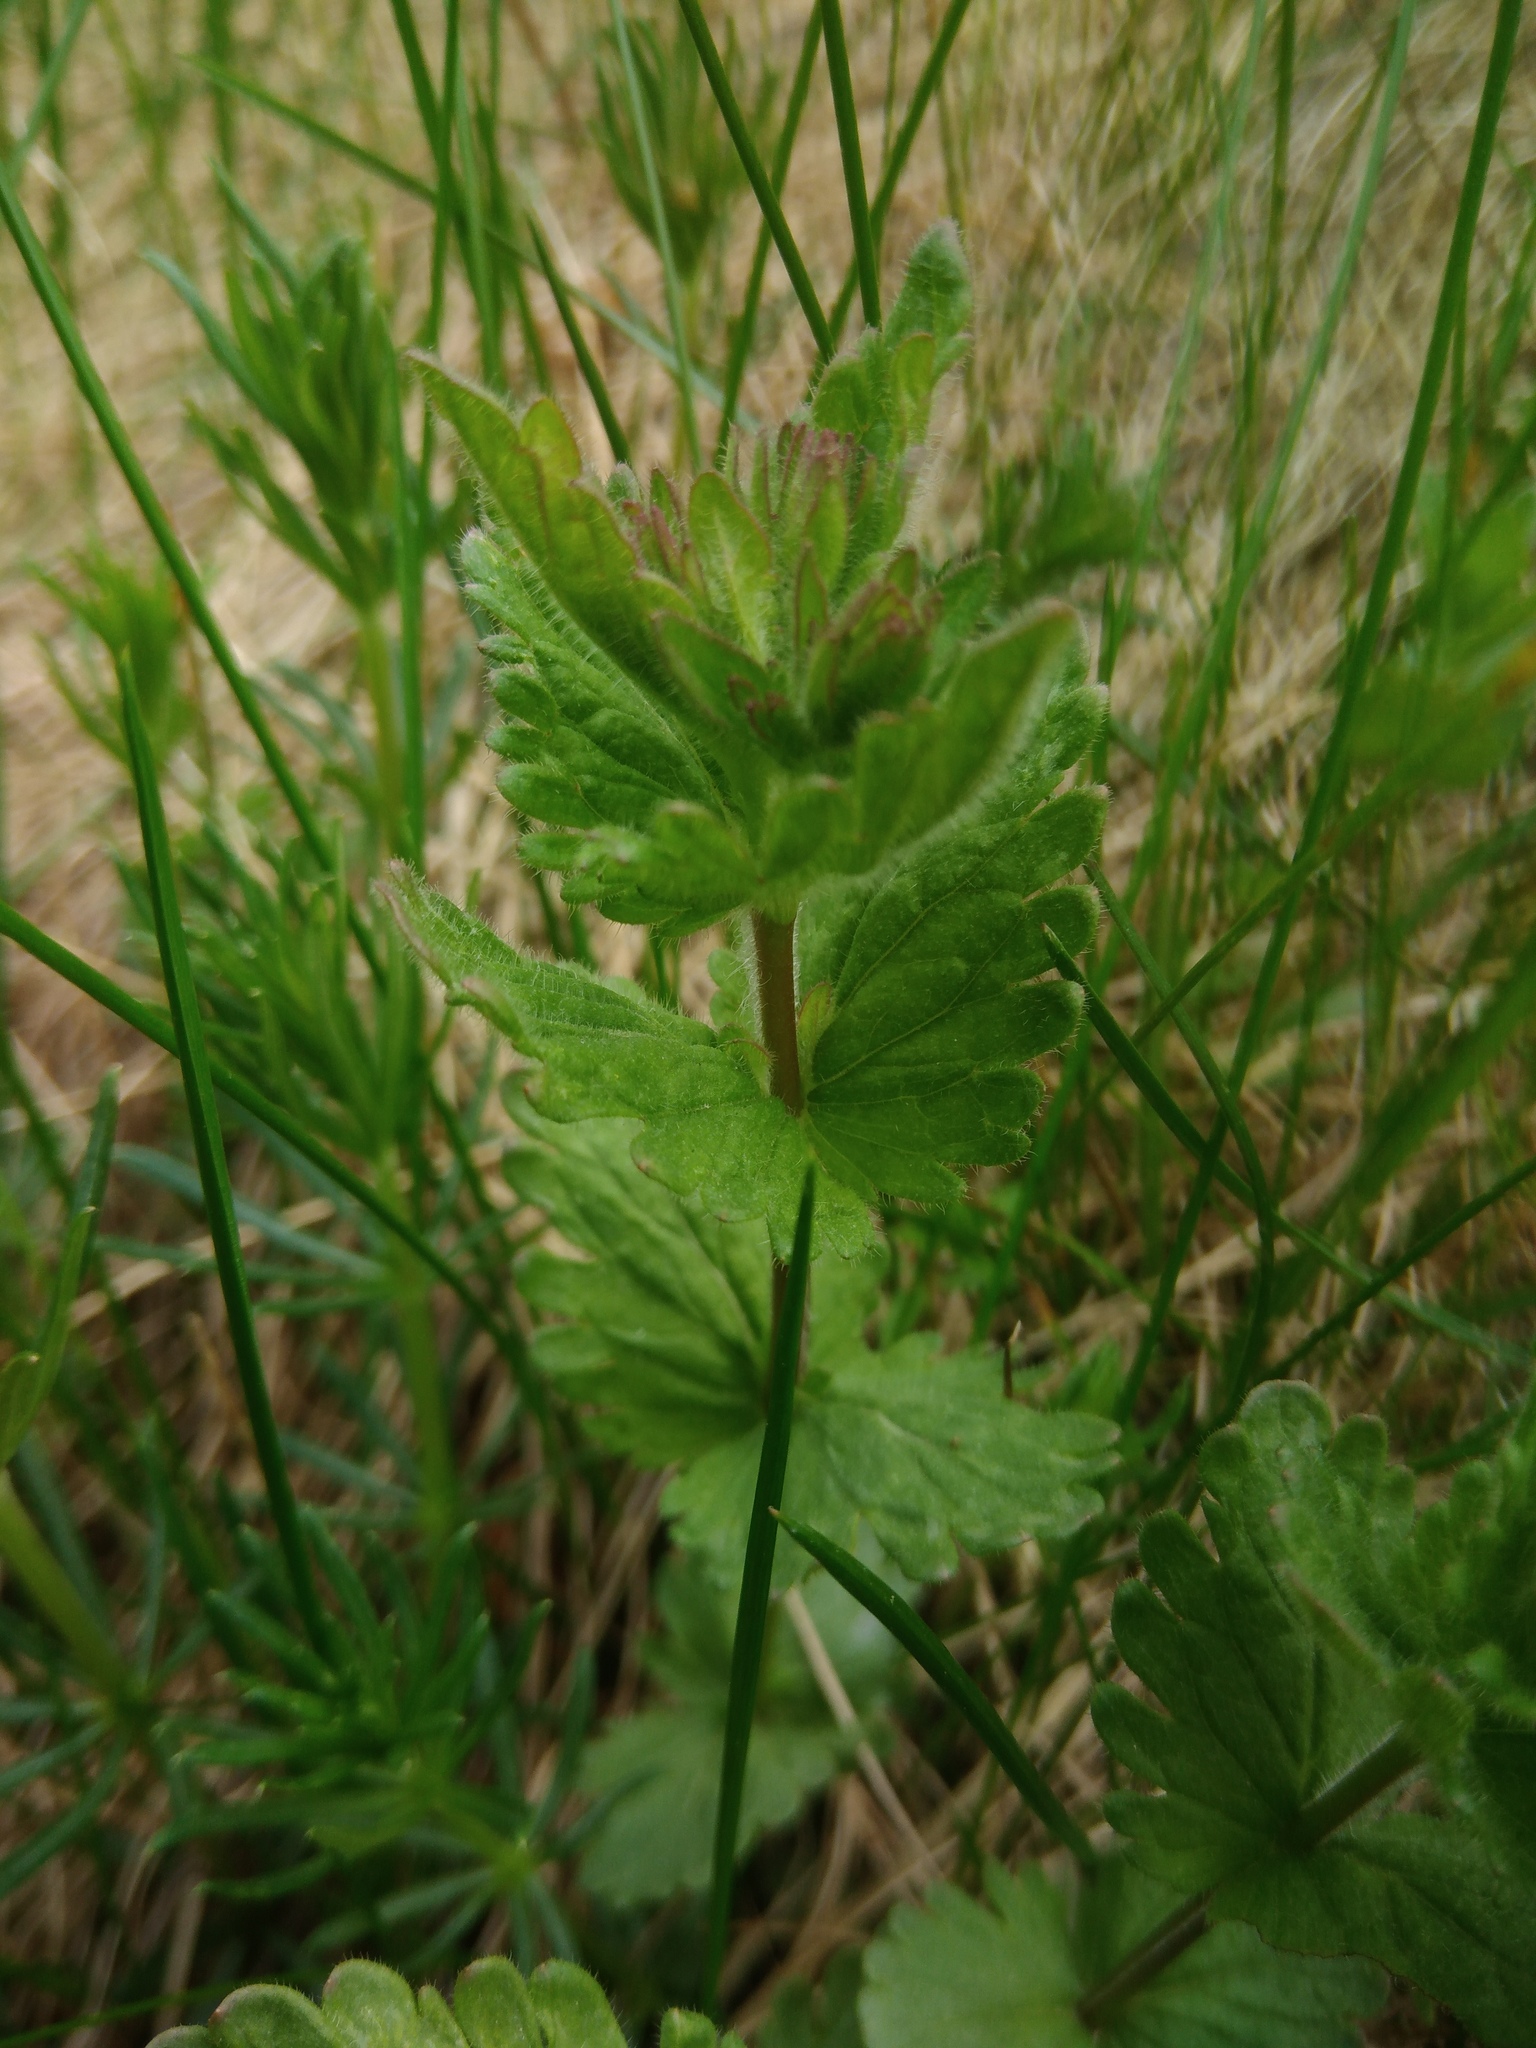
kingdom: Plantae
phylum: Tracheophyta
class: Magnoliopsida
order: Lamiales
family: Plantaginaceae
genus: Veronica
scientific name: Veronica chamaedrys
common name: Germander speedwell
